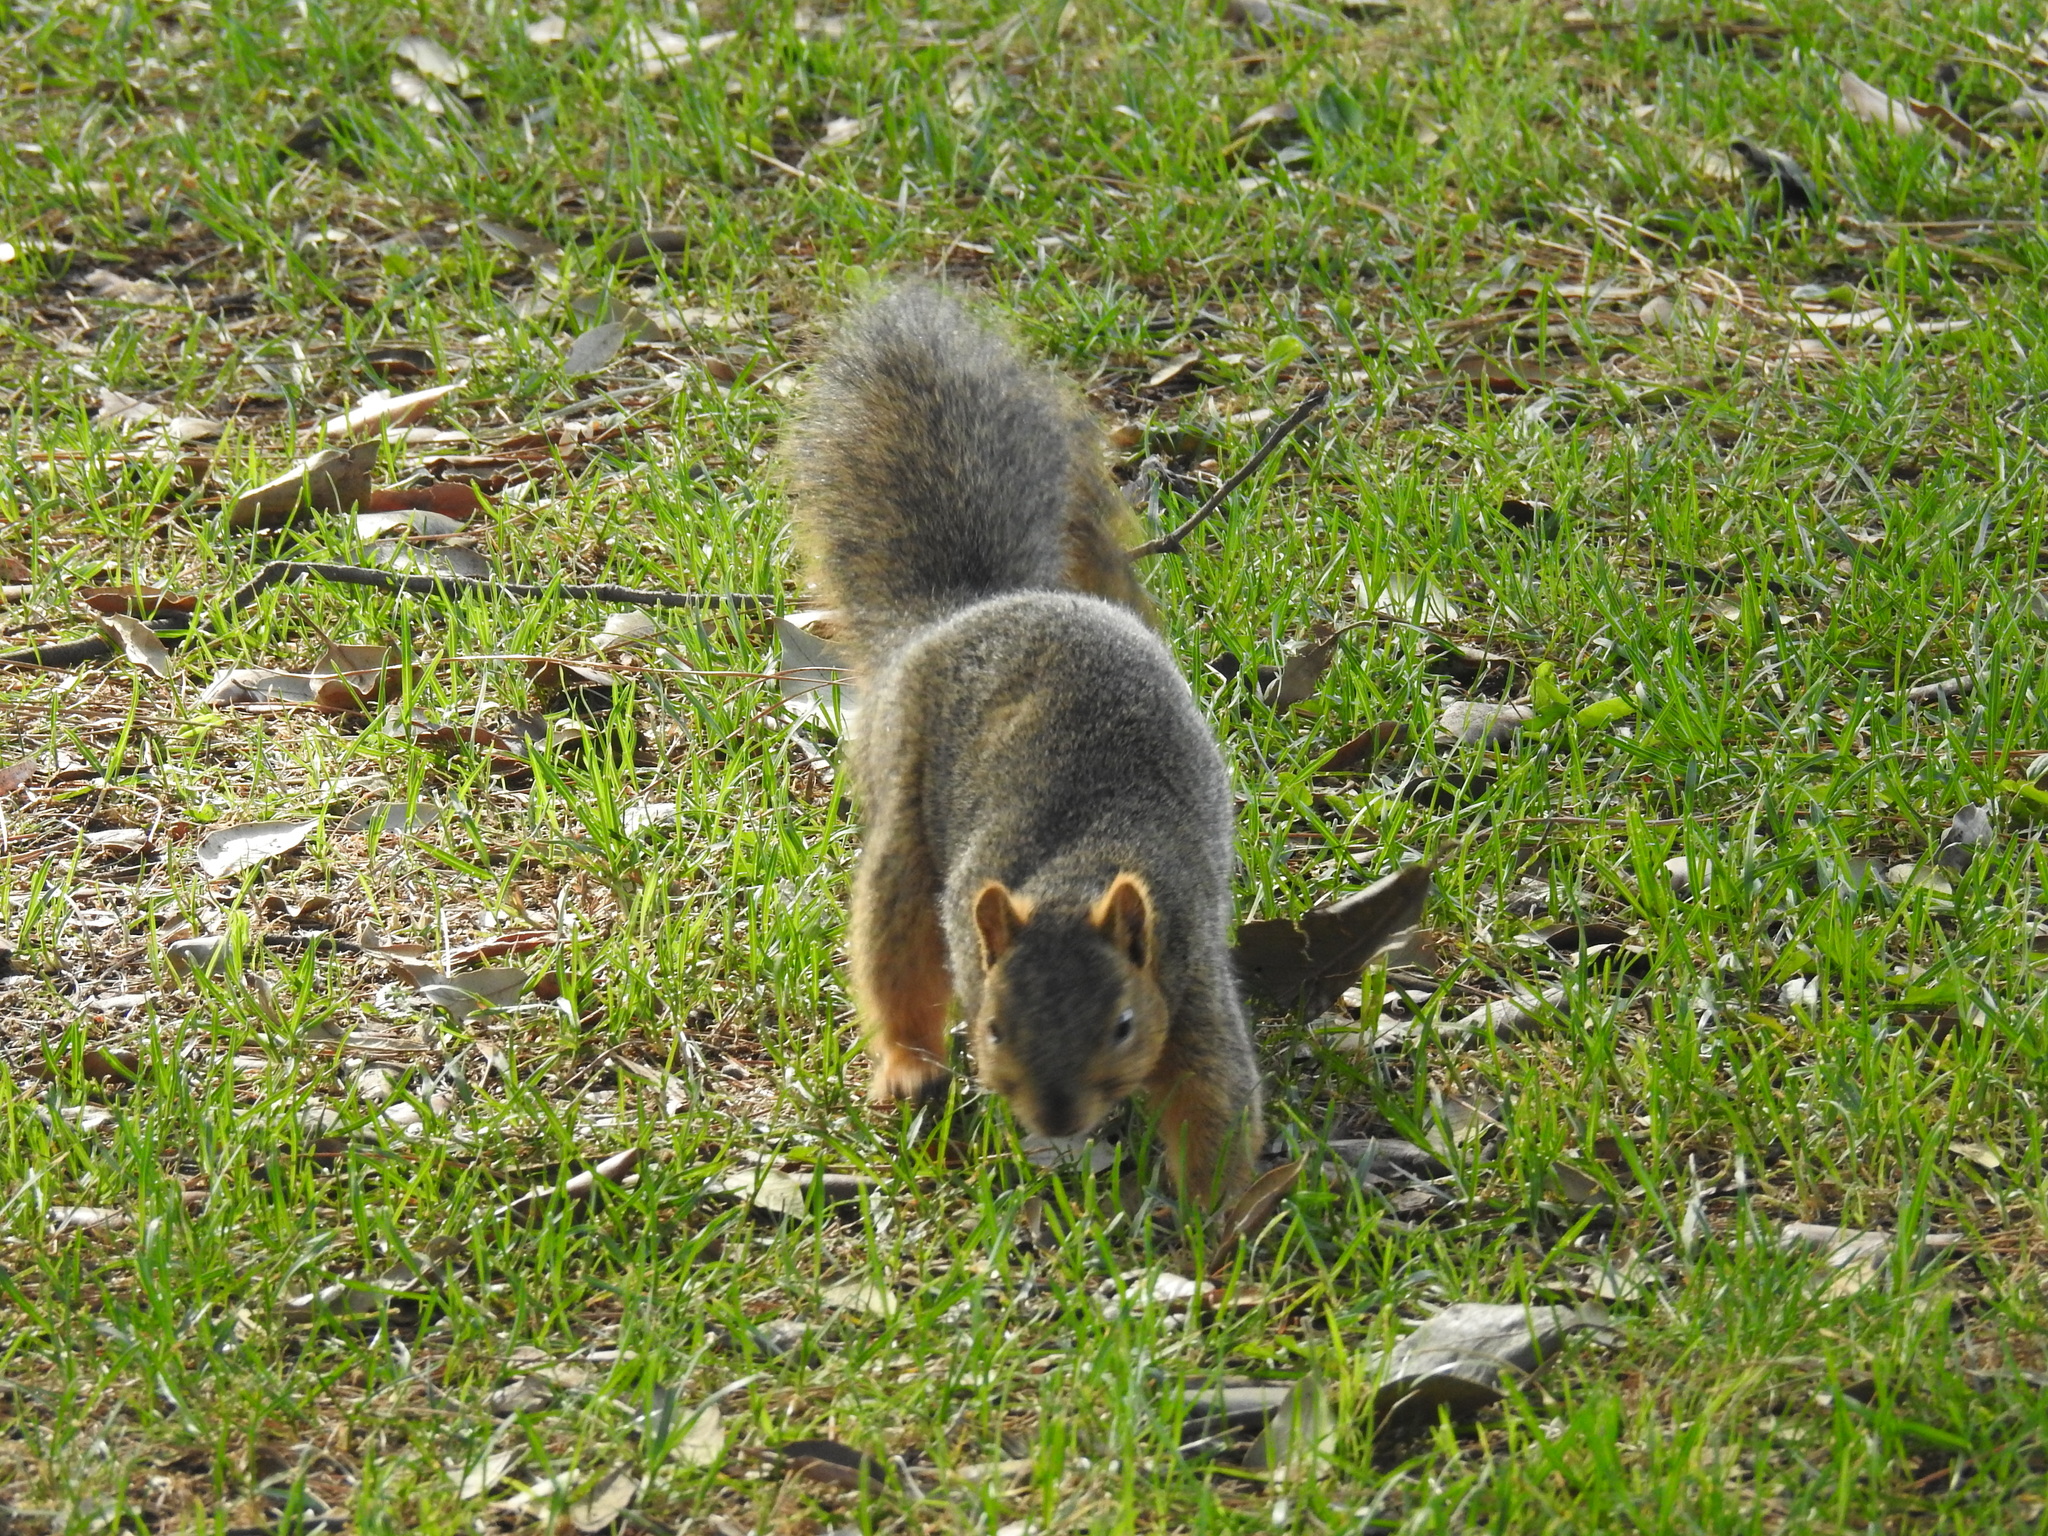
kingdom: Animalia
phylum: Chordata
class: Mammalia
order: Rodentia
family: Sciuridae
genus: Sciurus
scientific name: Sciurus niger
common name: Fox squirrel
